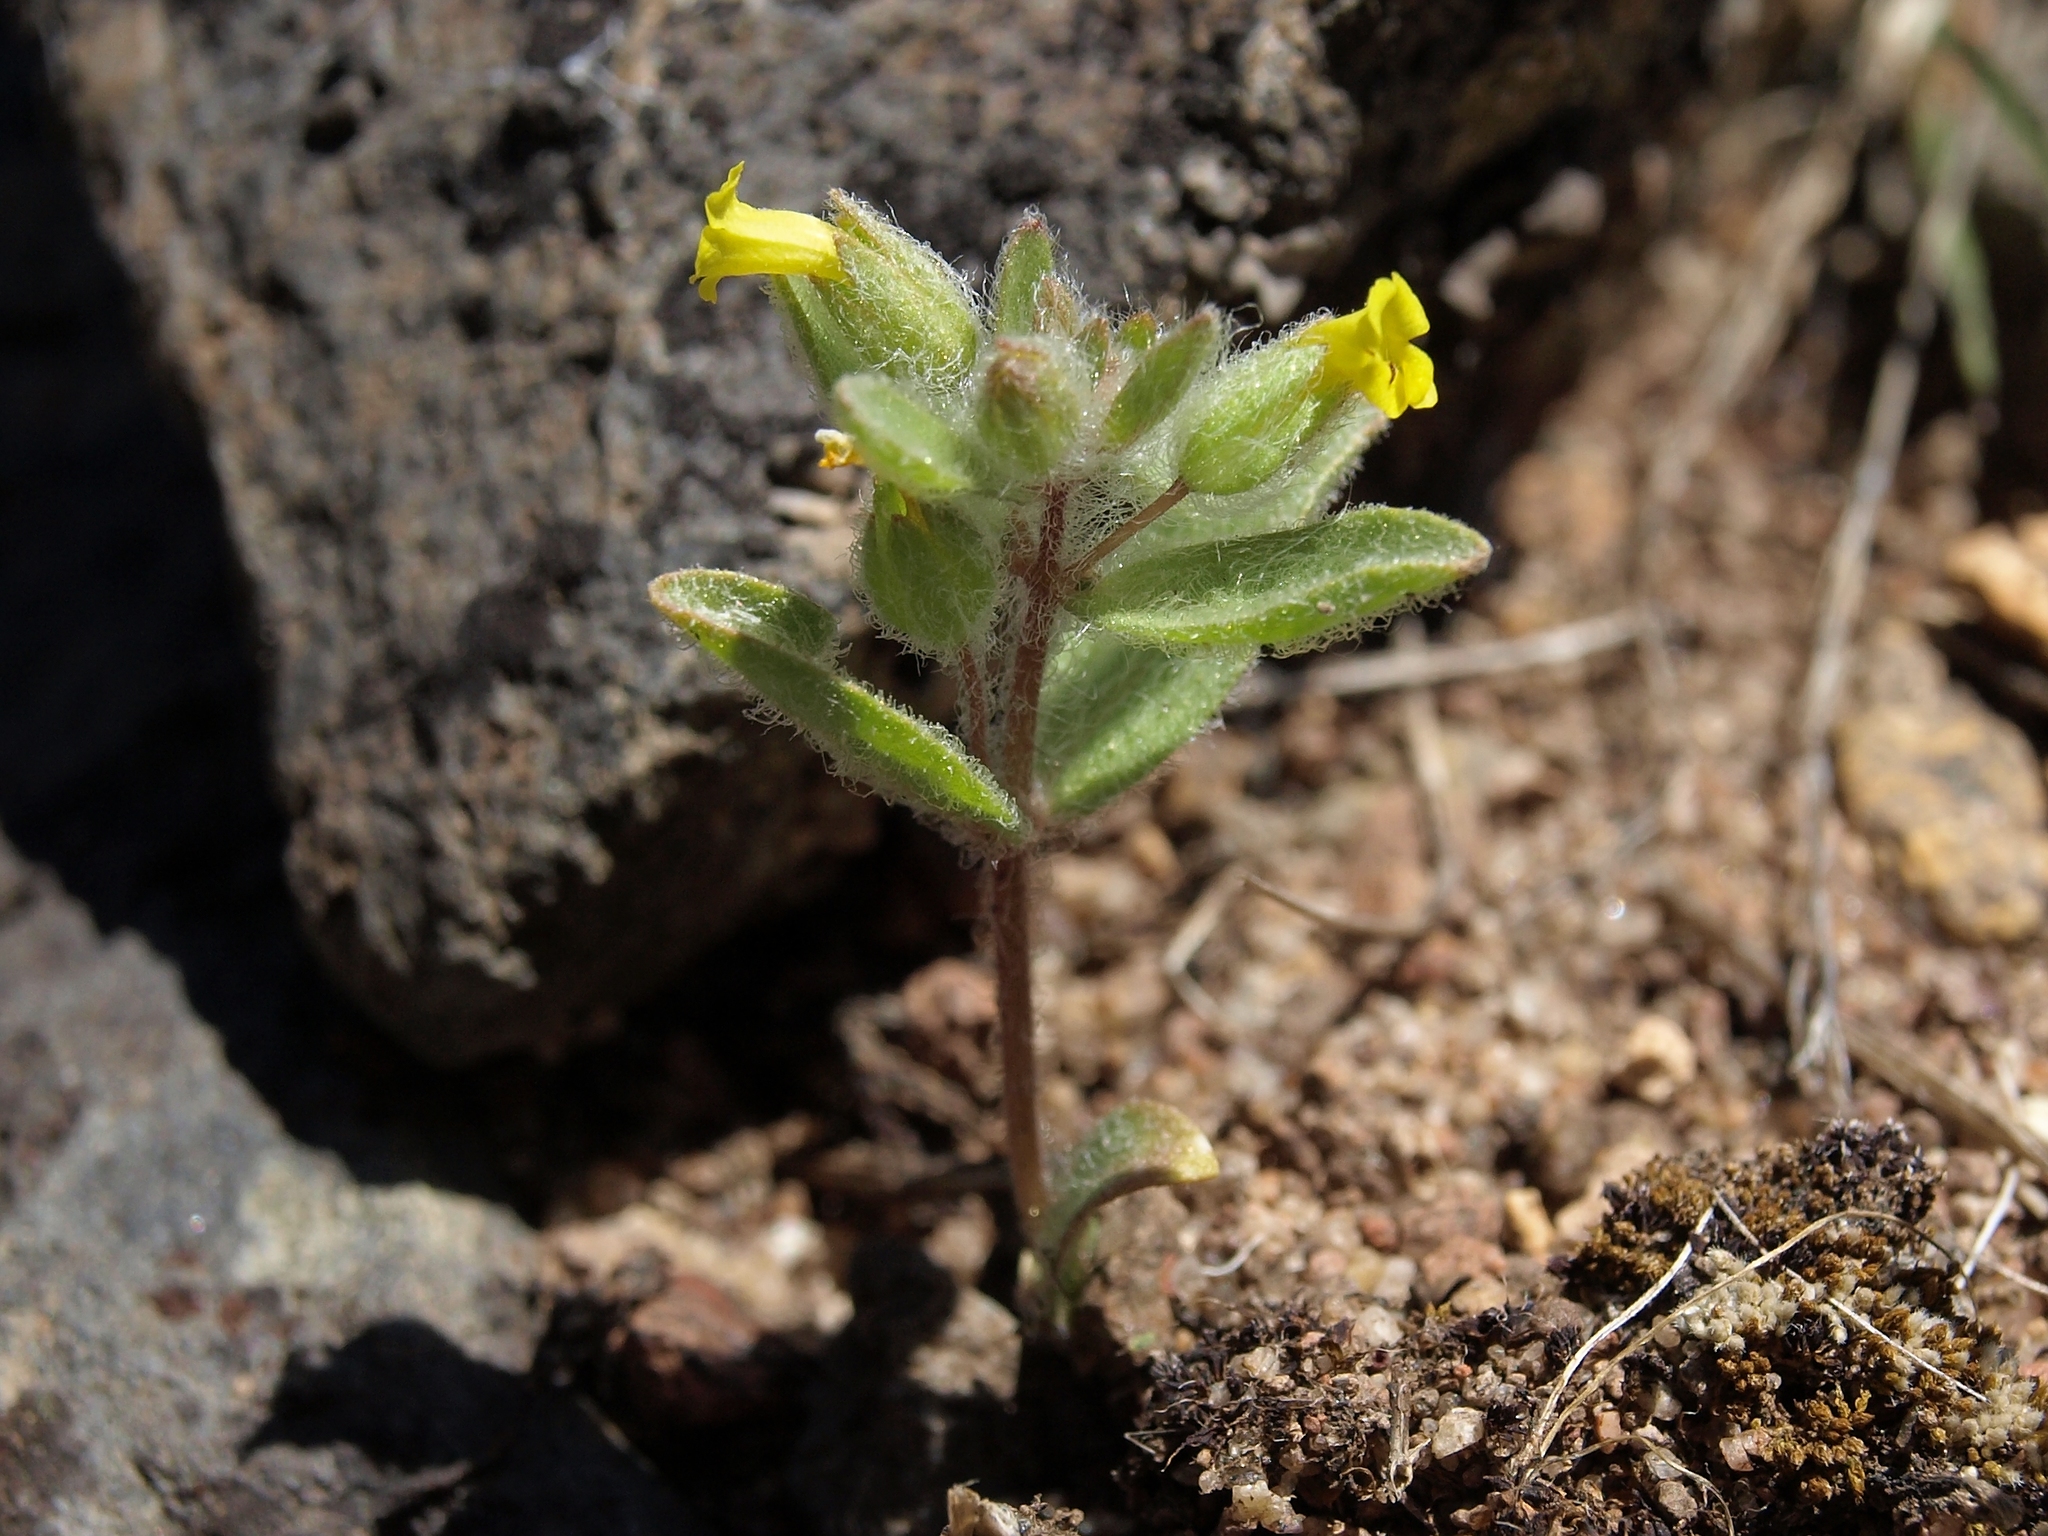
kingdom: Plantae
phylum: Tracheophyta
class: Magnoliopsida
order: Lamiales
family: Phrymaceae
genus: Mimetanthe
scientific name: Mimetanthe pilosa
